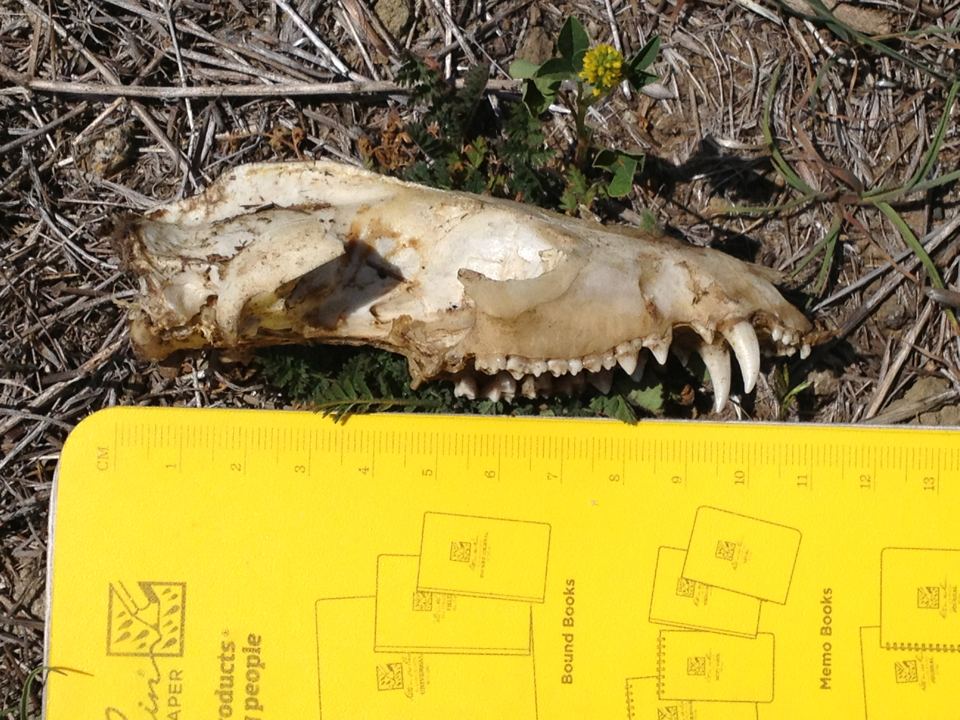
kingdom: Animalia
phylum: Chordata
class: Mammalia
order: Didelphimorphia
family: Didelphidae
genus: Didelphis
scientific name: Didelphis virginiana
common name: Virginia opossum
